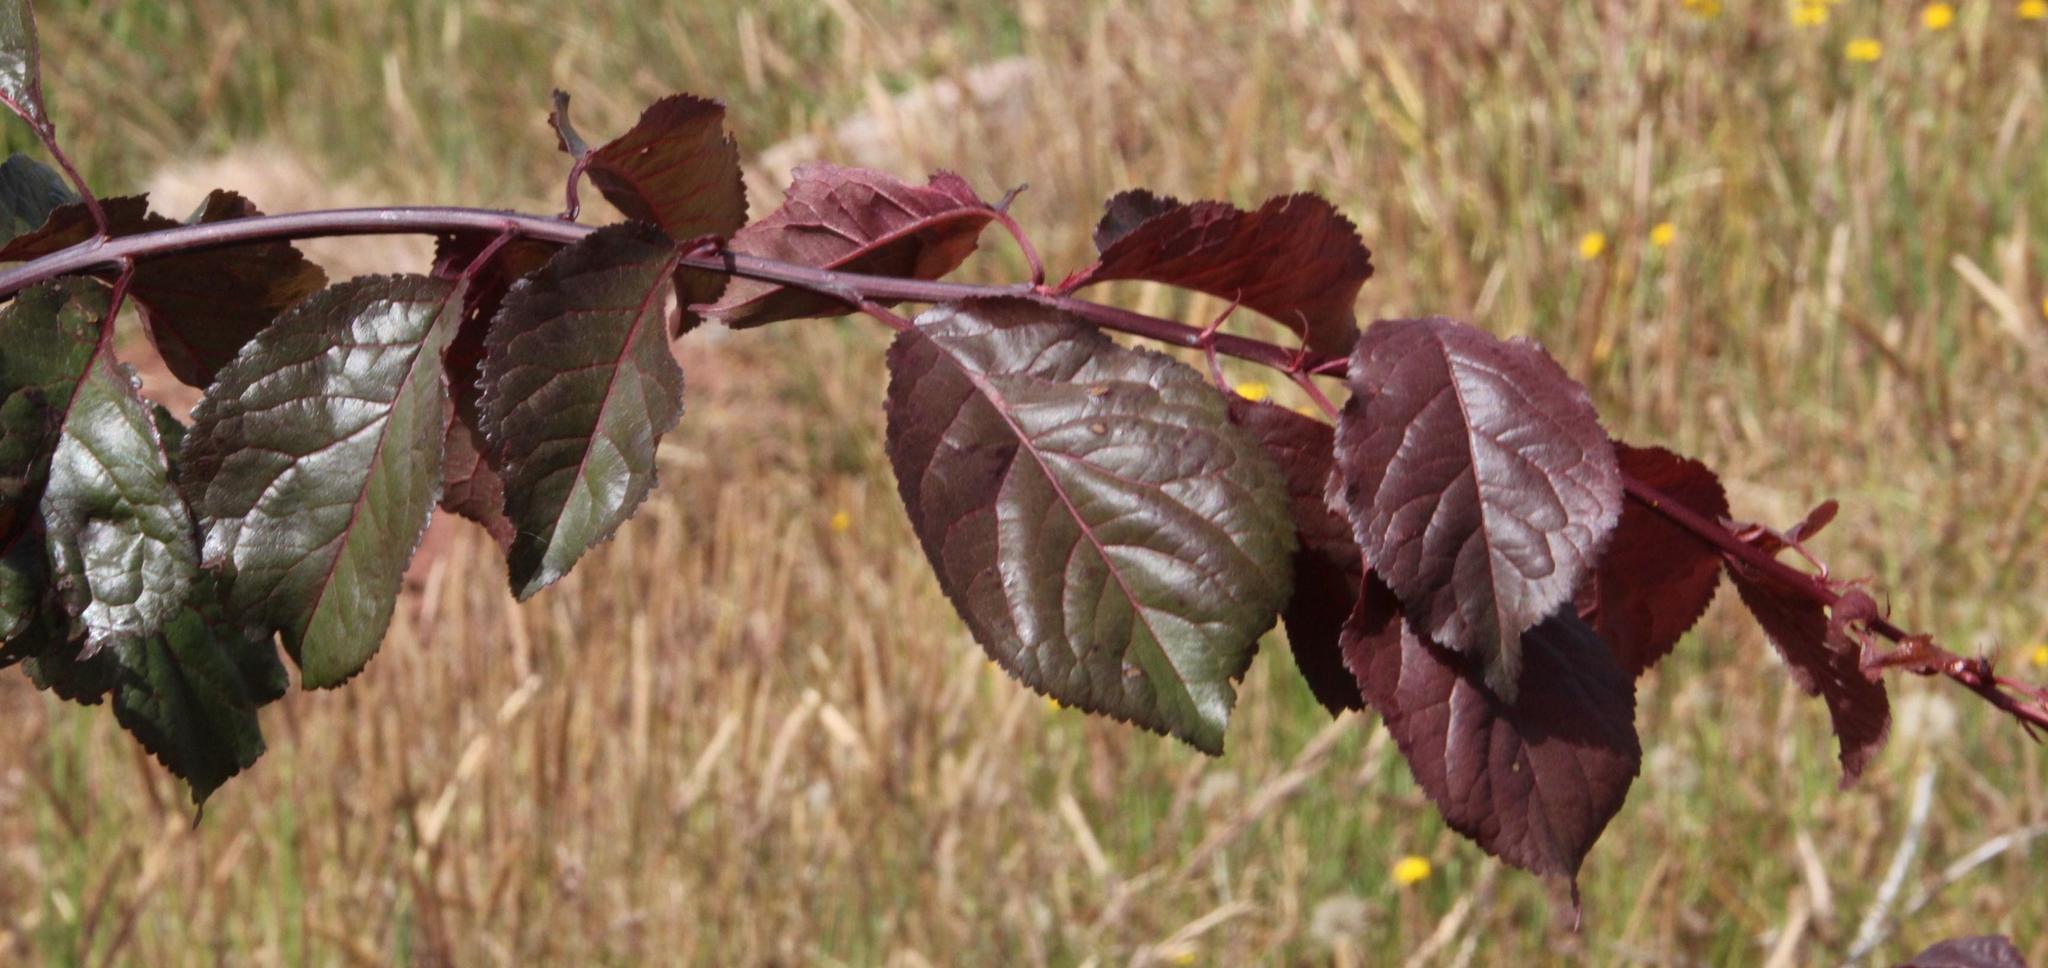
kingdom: Plantae
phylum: Tracheophyta
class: Magnoliopsida
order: Rosales
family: Rosaceae
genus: Prunus
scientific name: Prunus cerasifera
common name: Cherry plum
